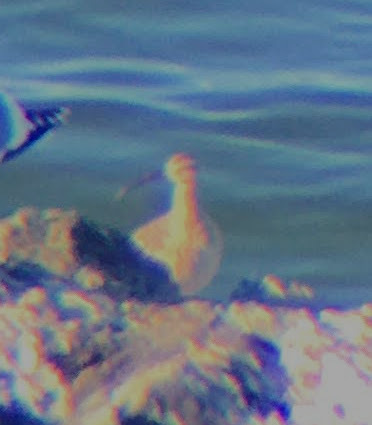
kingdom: Animalia
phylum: Chordata
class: Aves
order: Charadriiformes
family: Scolopacidae
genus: Numenius
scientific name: Numenius phaeopus
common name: Whimbrel
